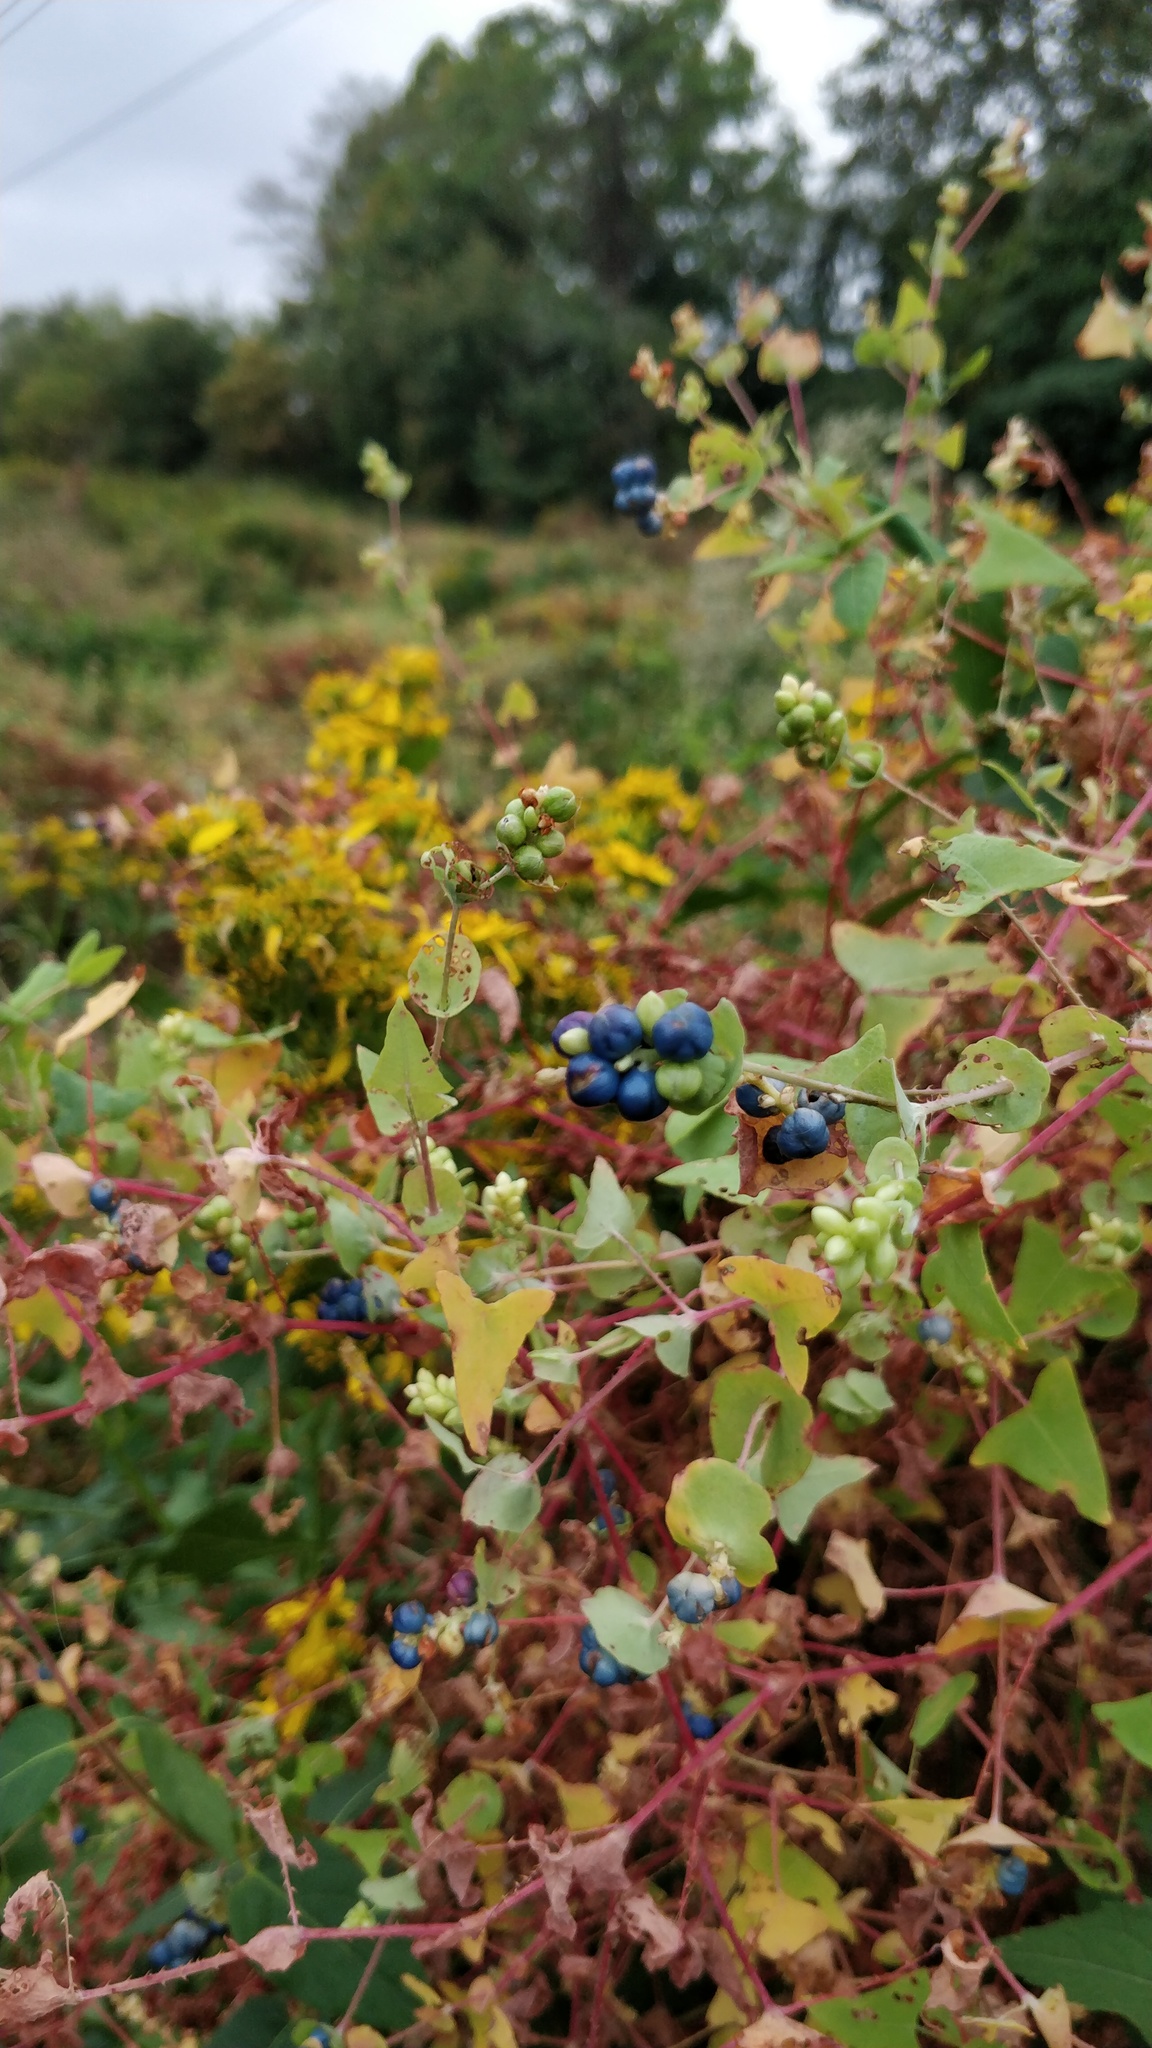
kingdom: Plantae
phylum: Tracheophyta
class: Magnoliopsida
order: Caryophyllales
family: Polygonaceae
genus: Persicaria
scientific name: Persicaria perfoliata
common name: Asiatic tearthumb
